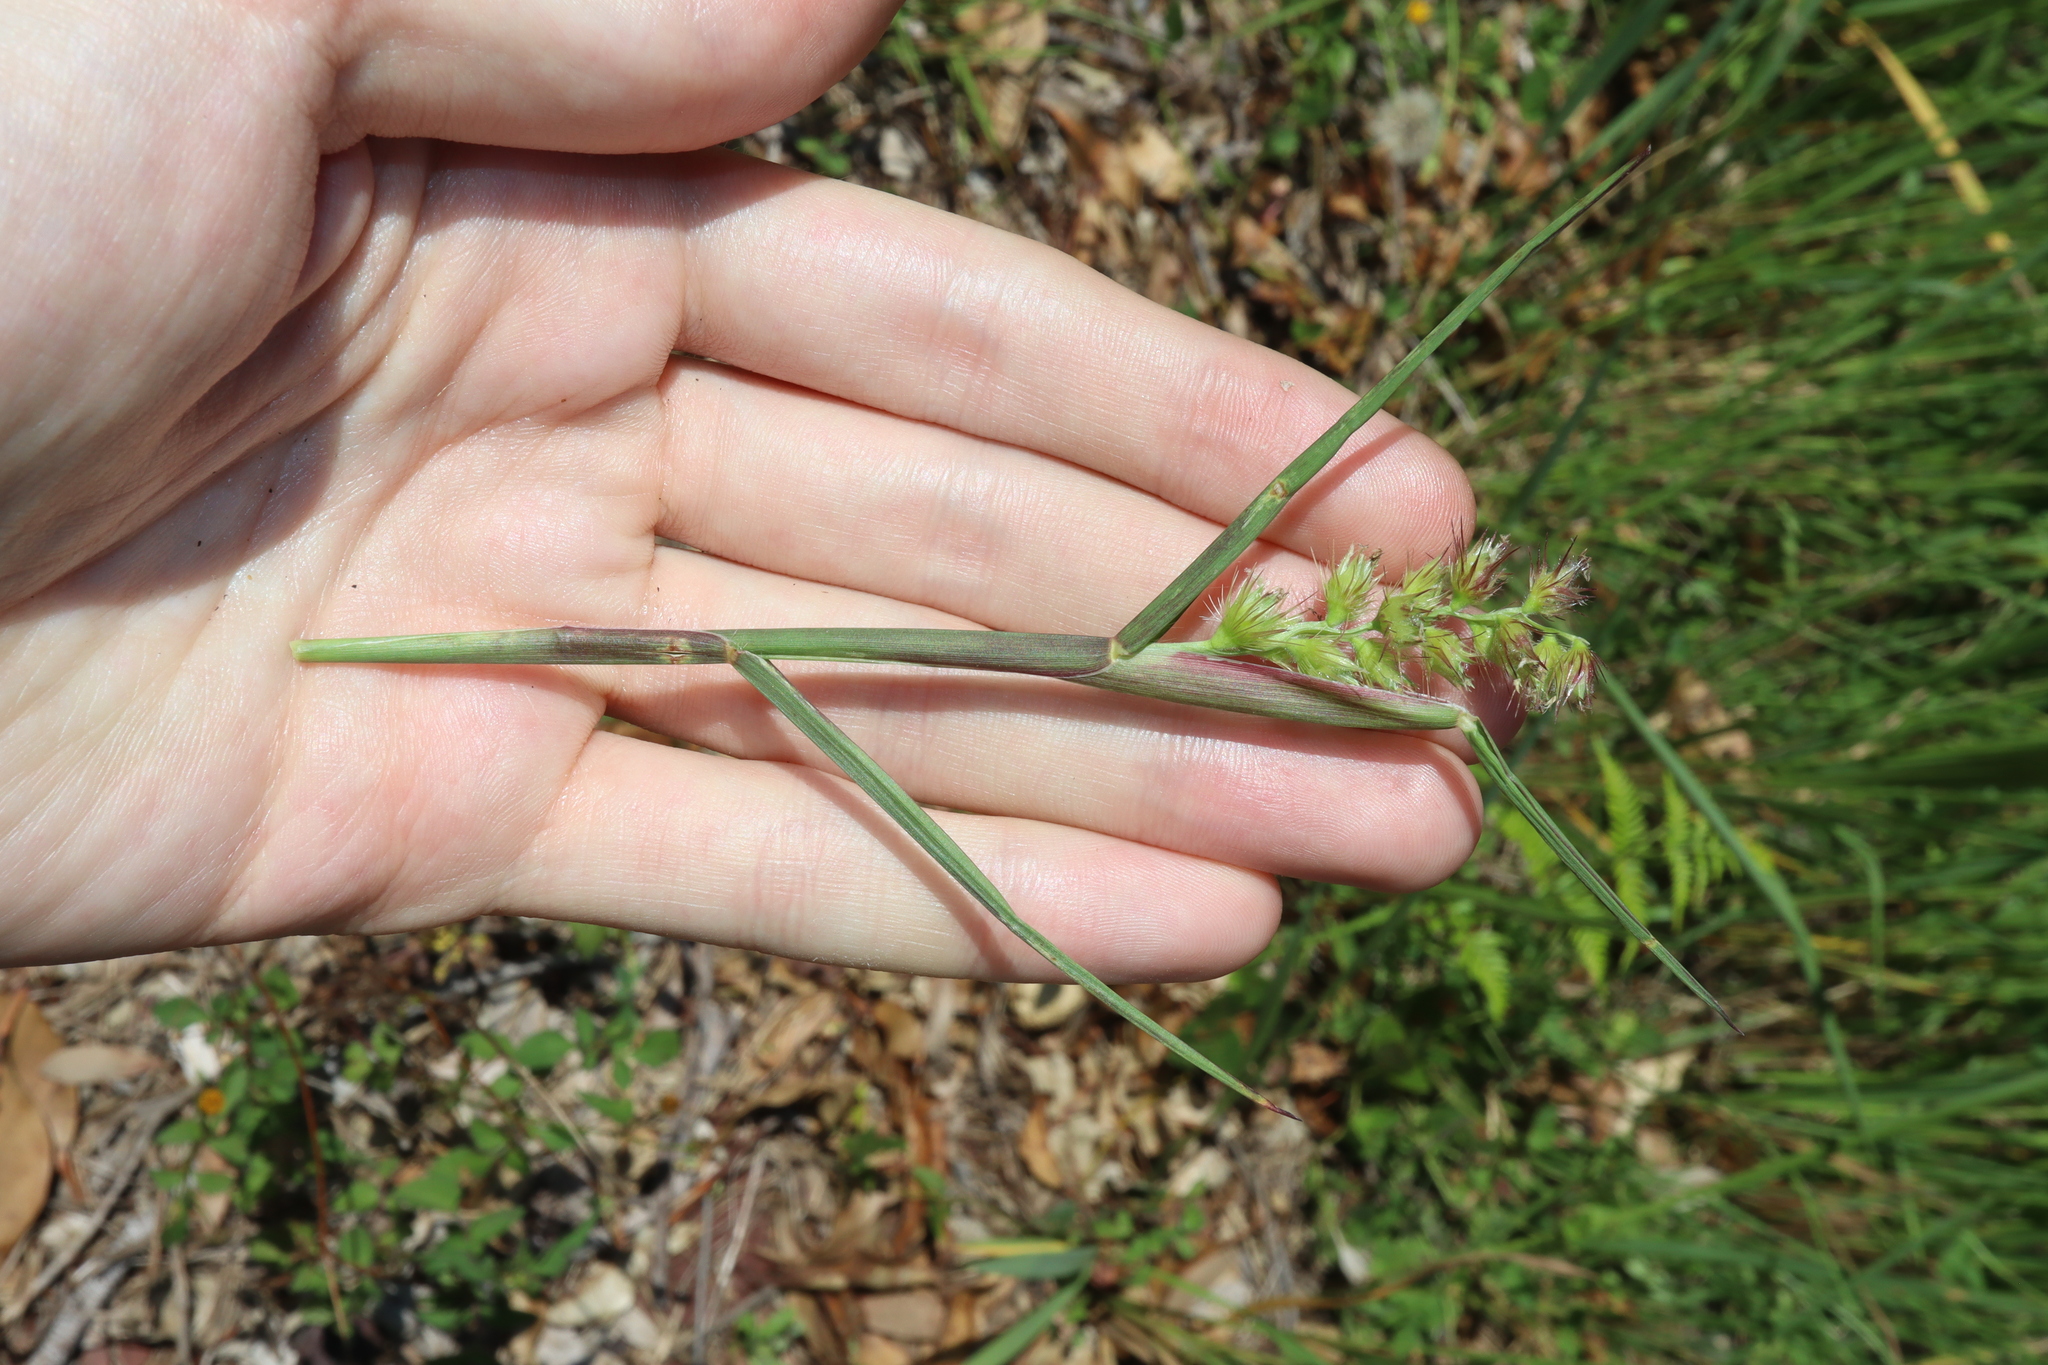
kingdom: Plantae
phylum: Tracheophyta
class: Liliopsida
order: Poales
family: Poaceae
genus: Cenchrus
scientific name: Cenchrus echinatus
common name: Southern sandbur
